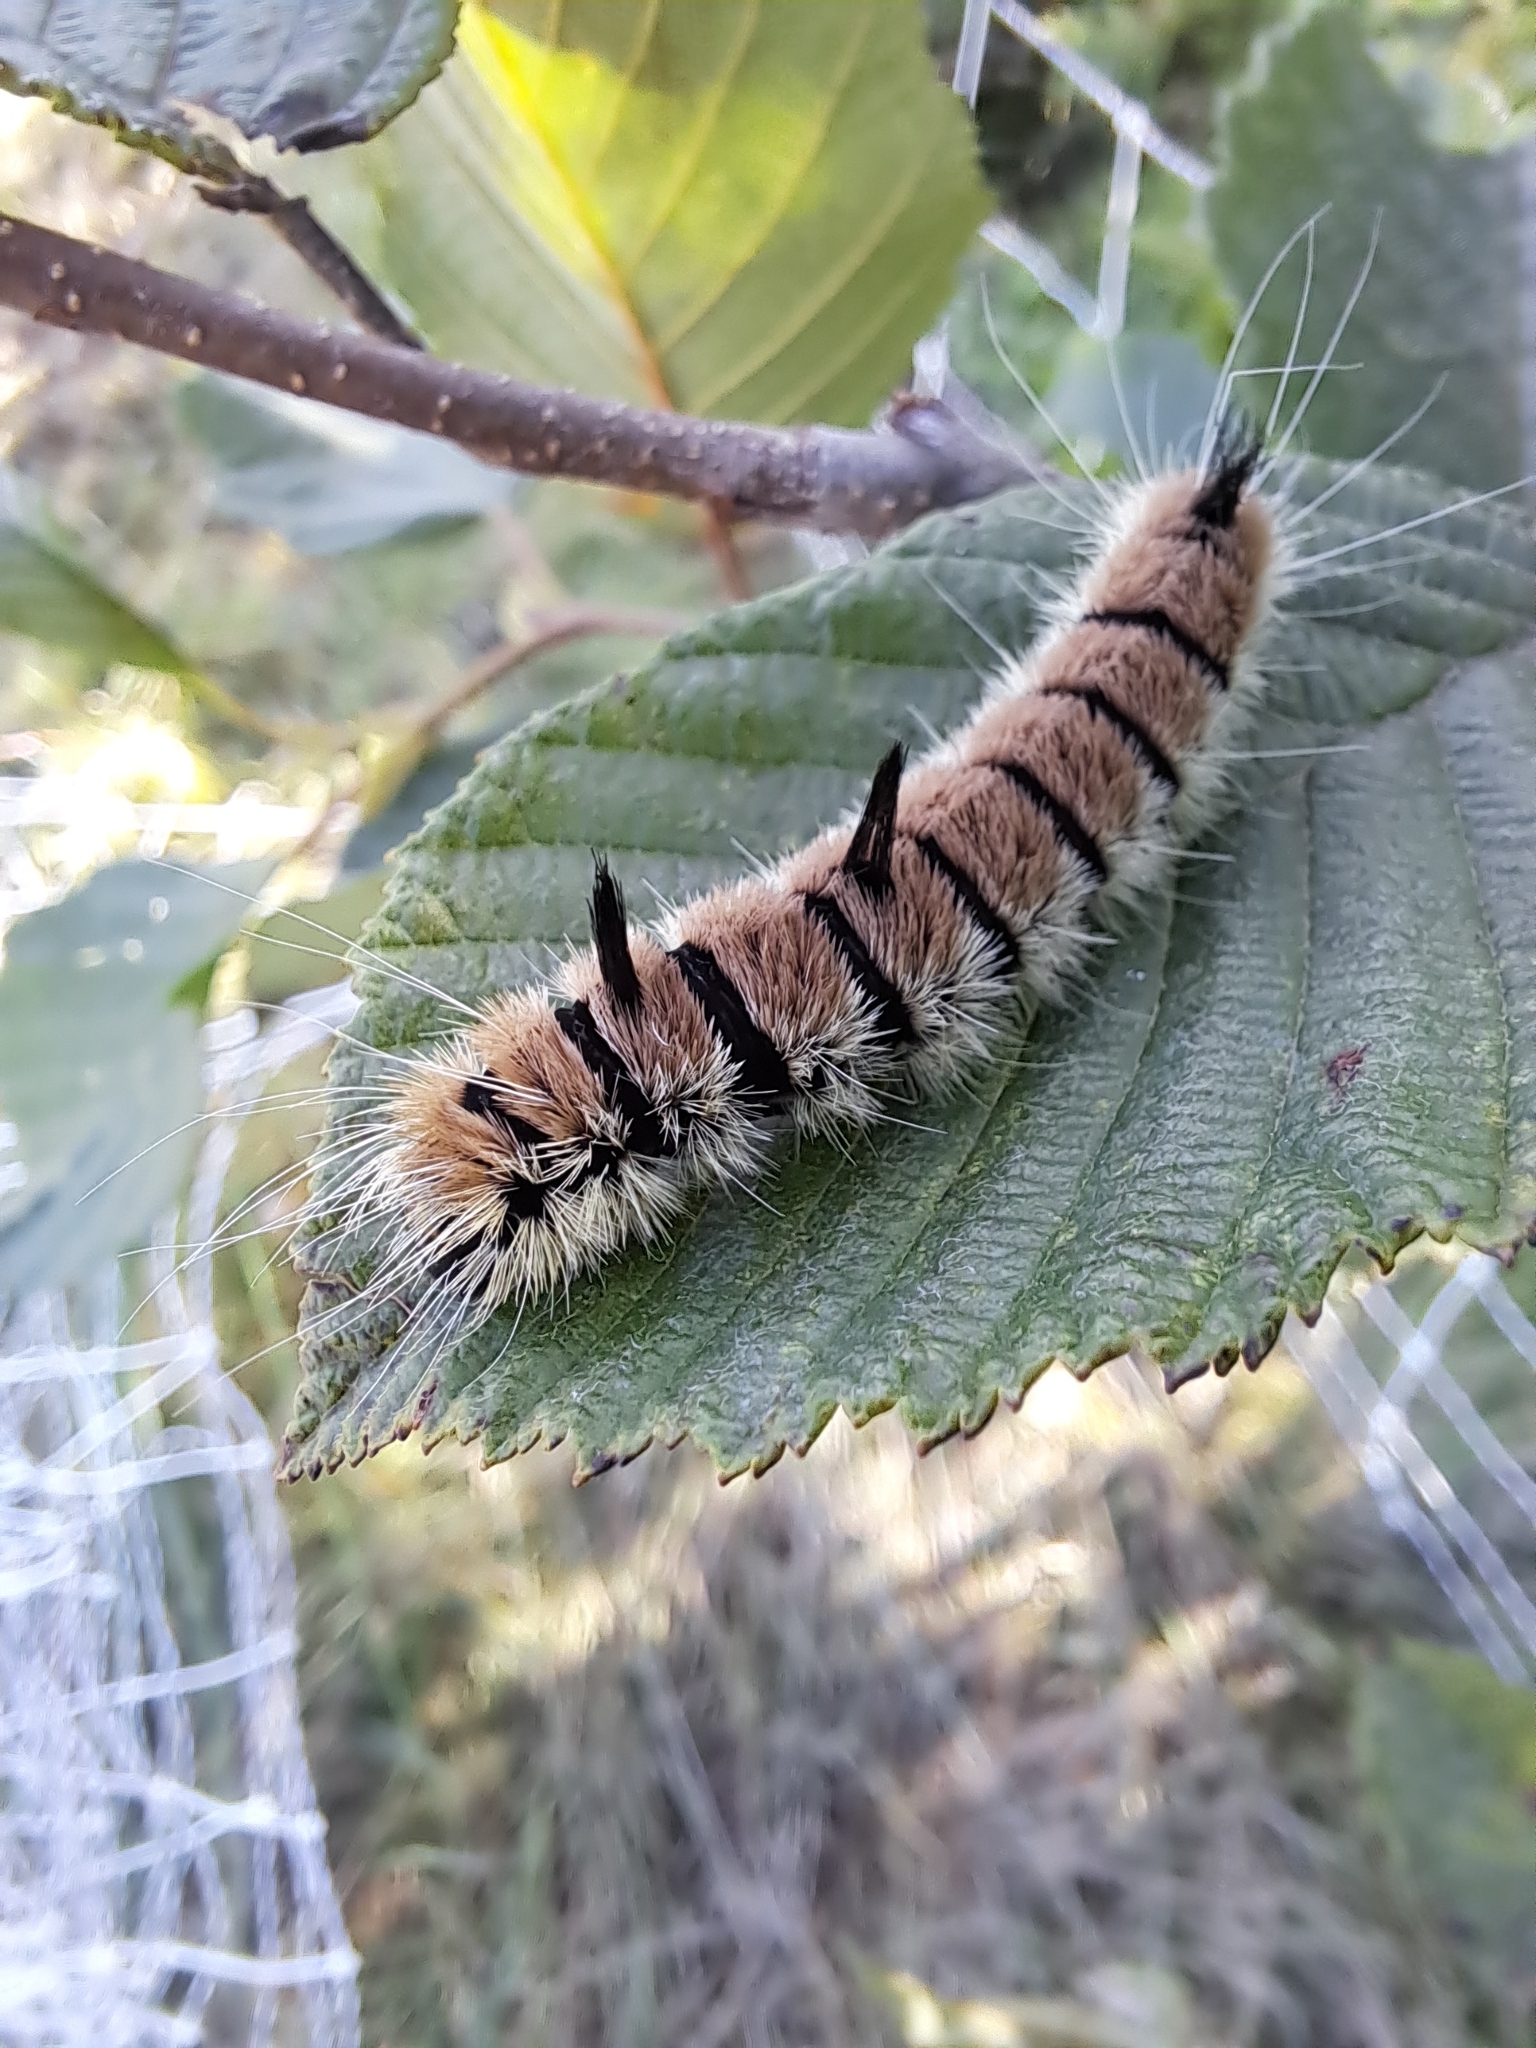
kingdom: Animalia
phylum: Arthropoda
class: Insecta
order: Lepidoptera
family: Noctuidae
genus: Acronicta
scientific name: Acronicta insita
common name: Large gray dagger
